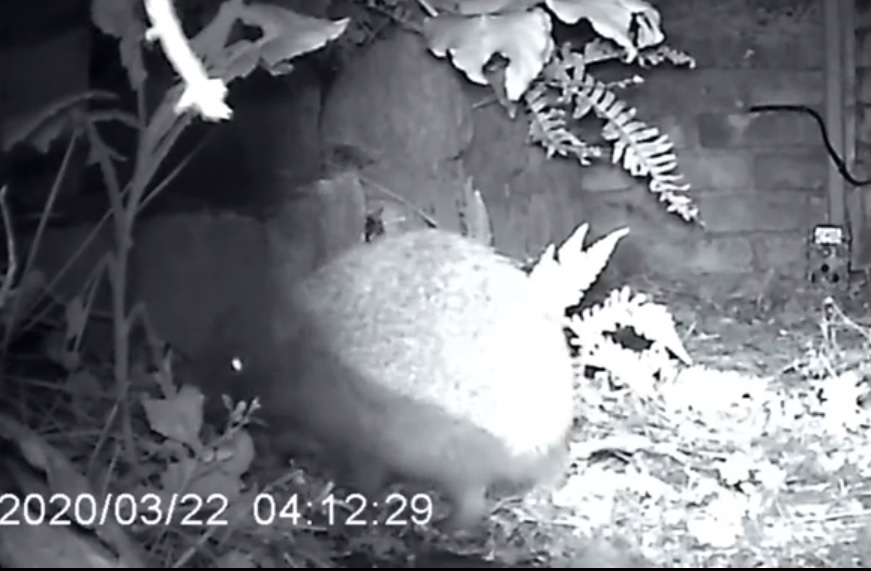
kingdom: Animalia
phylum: Chordata
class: Mammalia
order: Erinaceomorpha
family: Erinaceidae
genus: Erinaceus
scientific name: Erinaceus europaeus
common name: West european hedgehog
